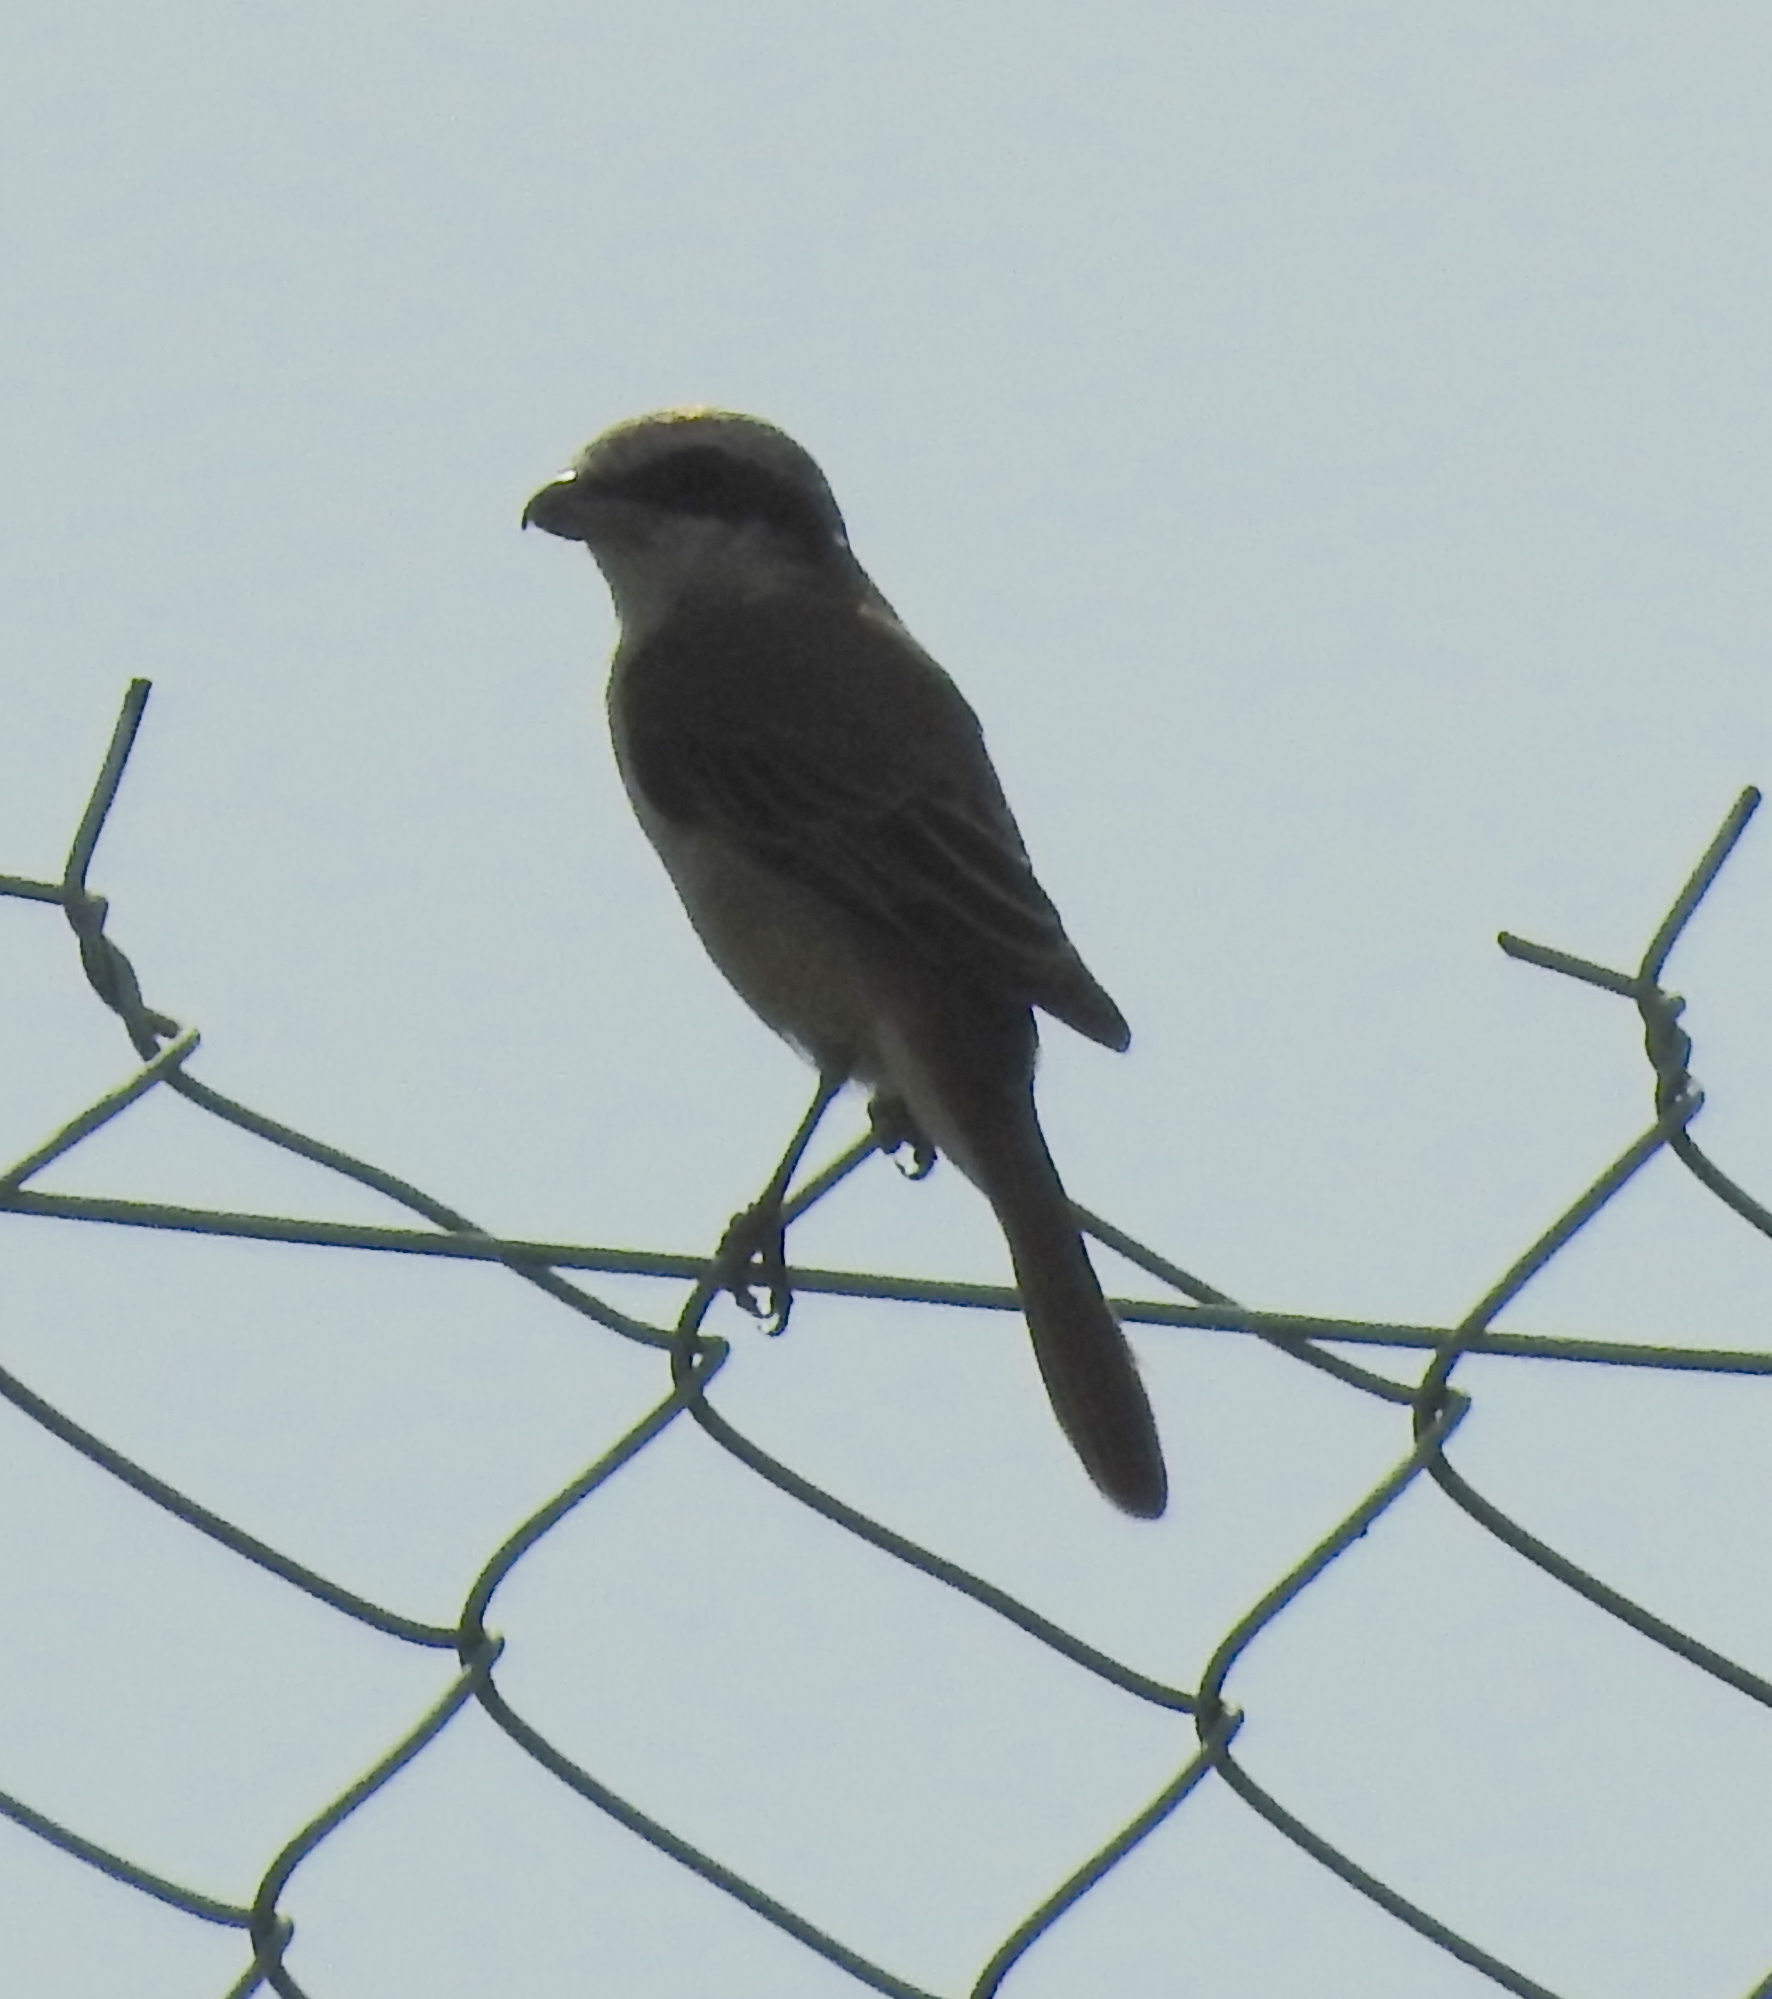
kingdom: Animalia
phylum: Chordata
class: Aves
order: Passeriformes
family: Laniidae
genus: Lanius
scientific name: Lanius cristatus
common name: Brown shrike
